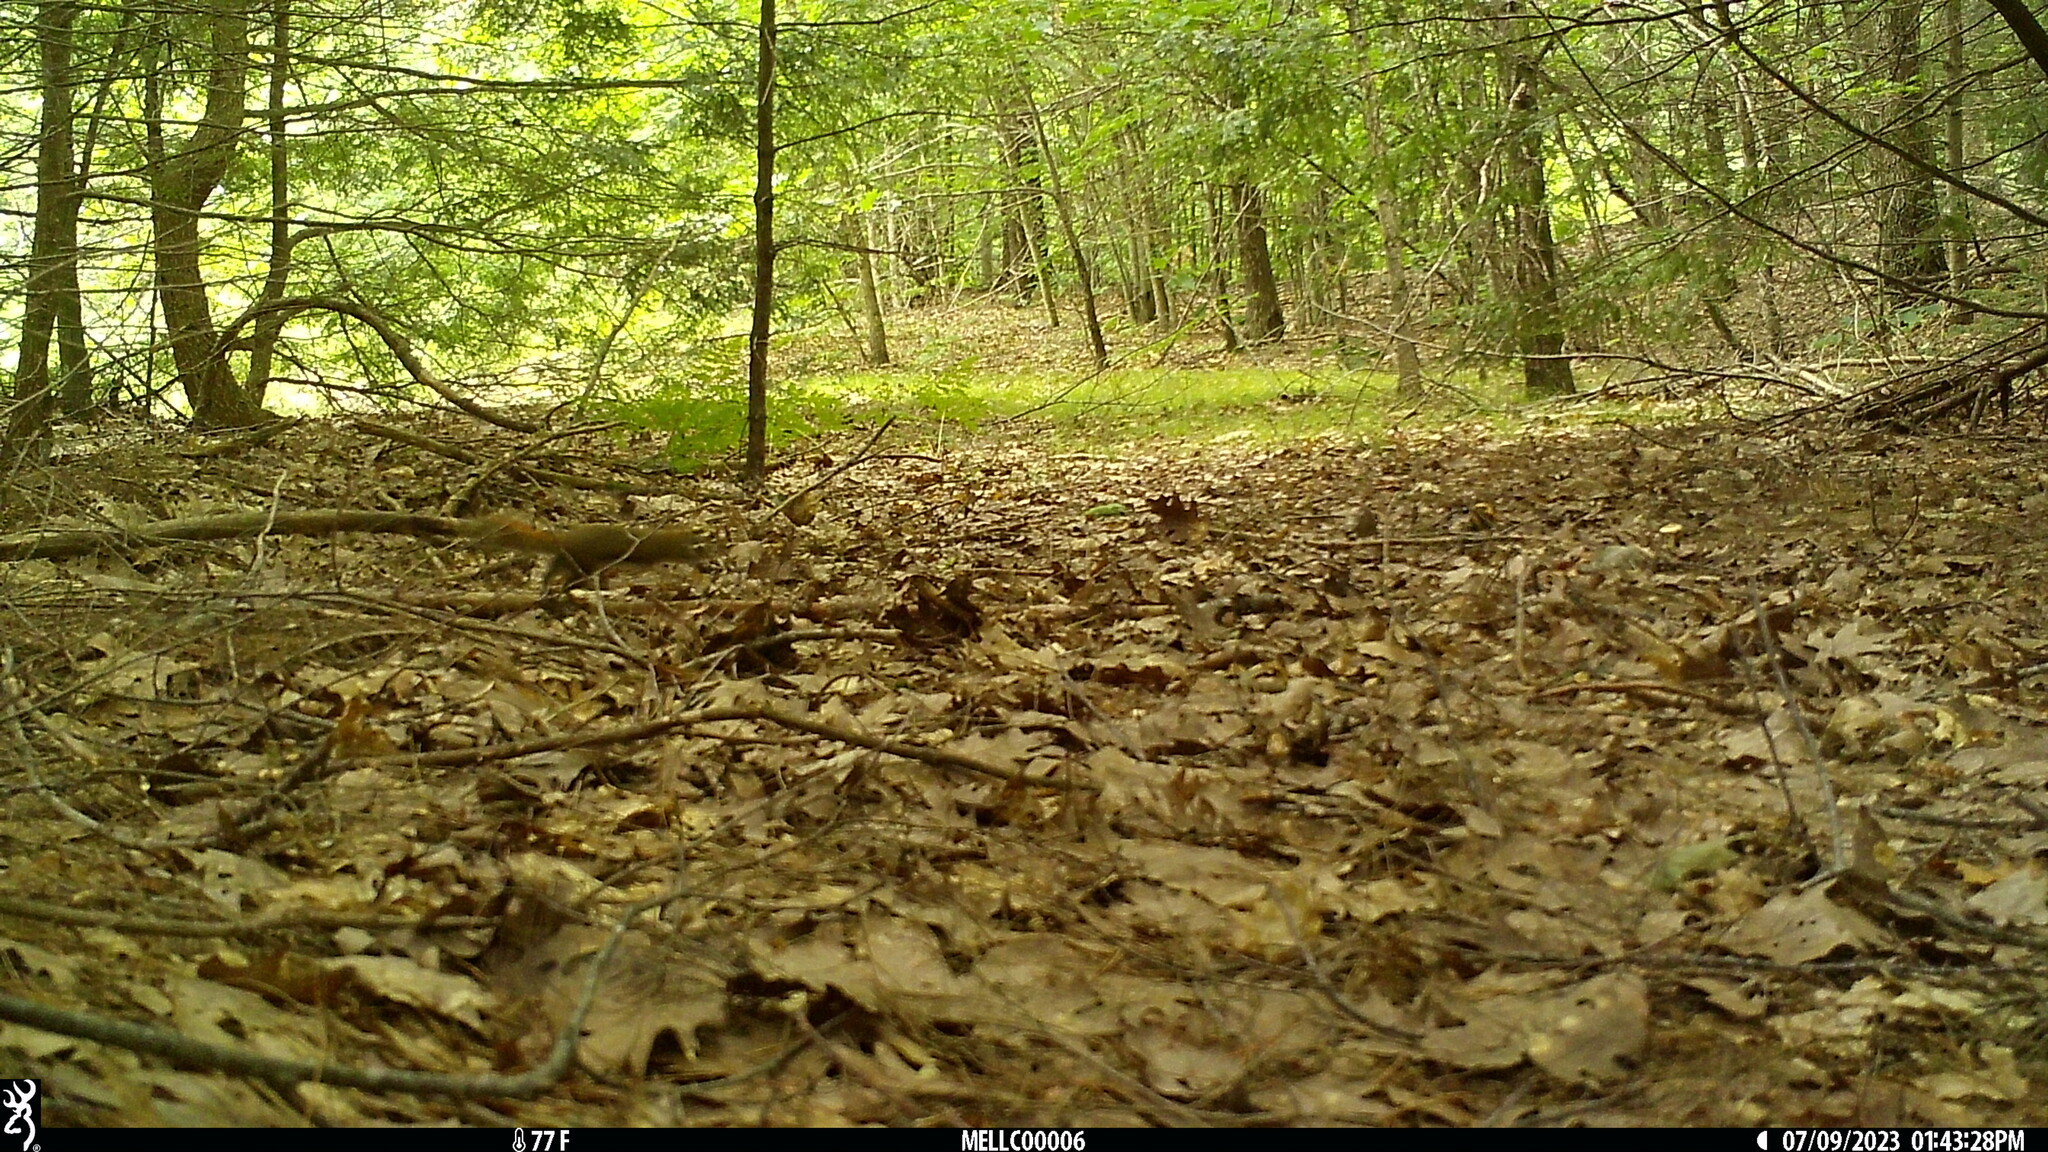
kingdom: Animalia
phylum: Chordata
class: Mammalia
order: Rodentia
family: Sciuridae
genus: Tamiasciurus
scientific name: Tamiasciurus hudsonicus
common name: Red squirrel
